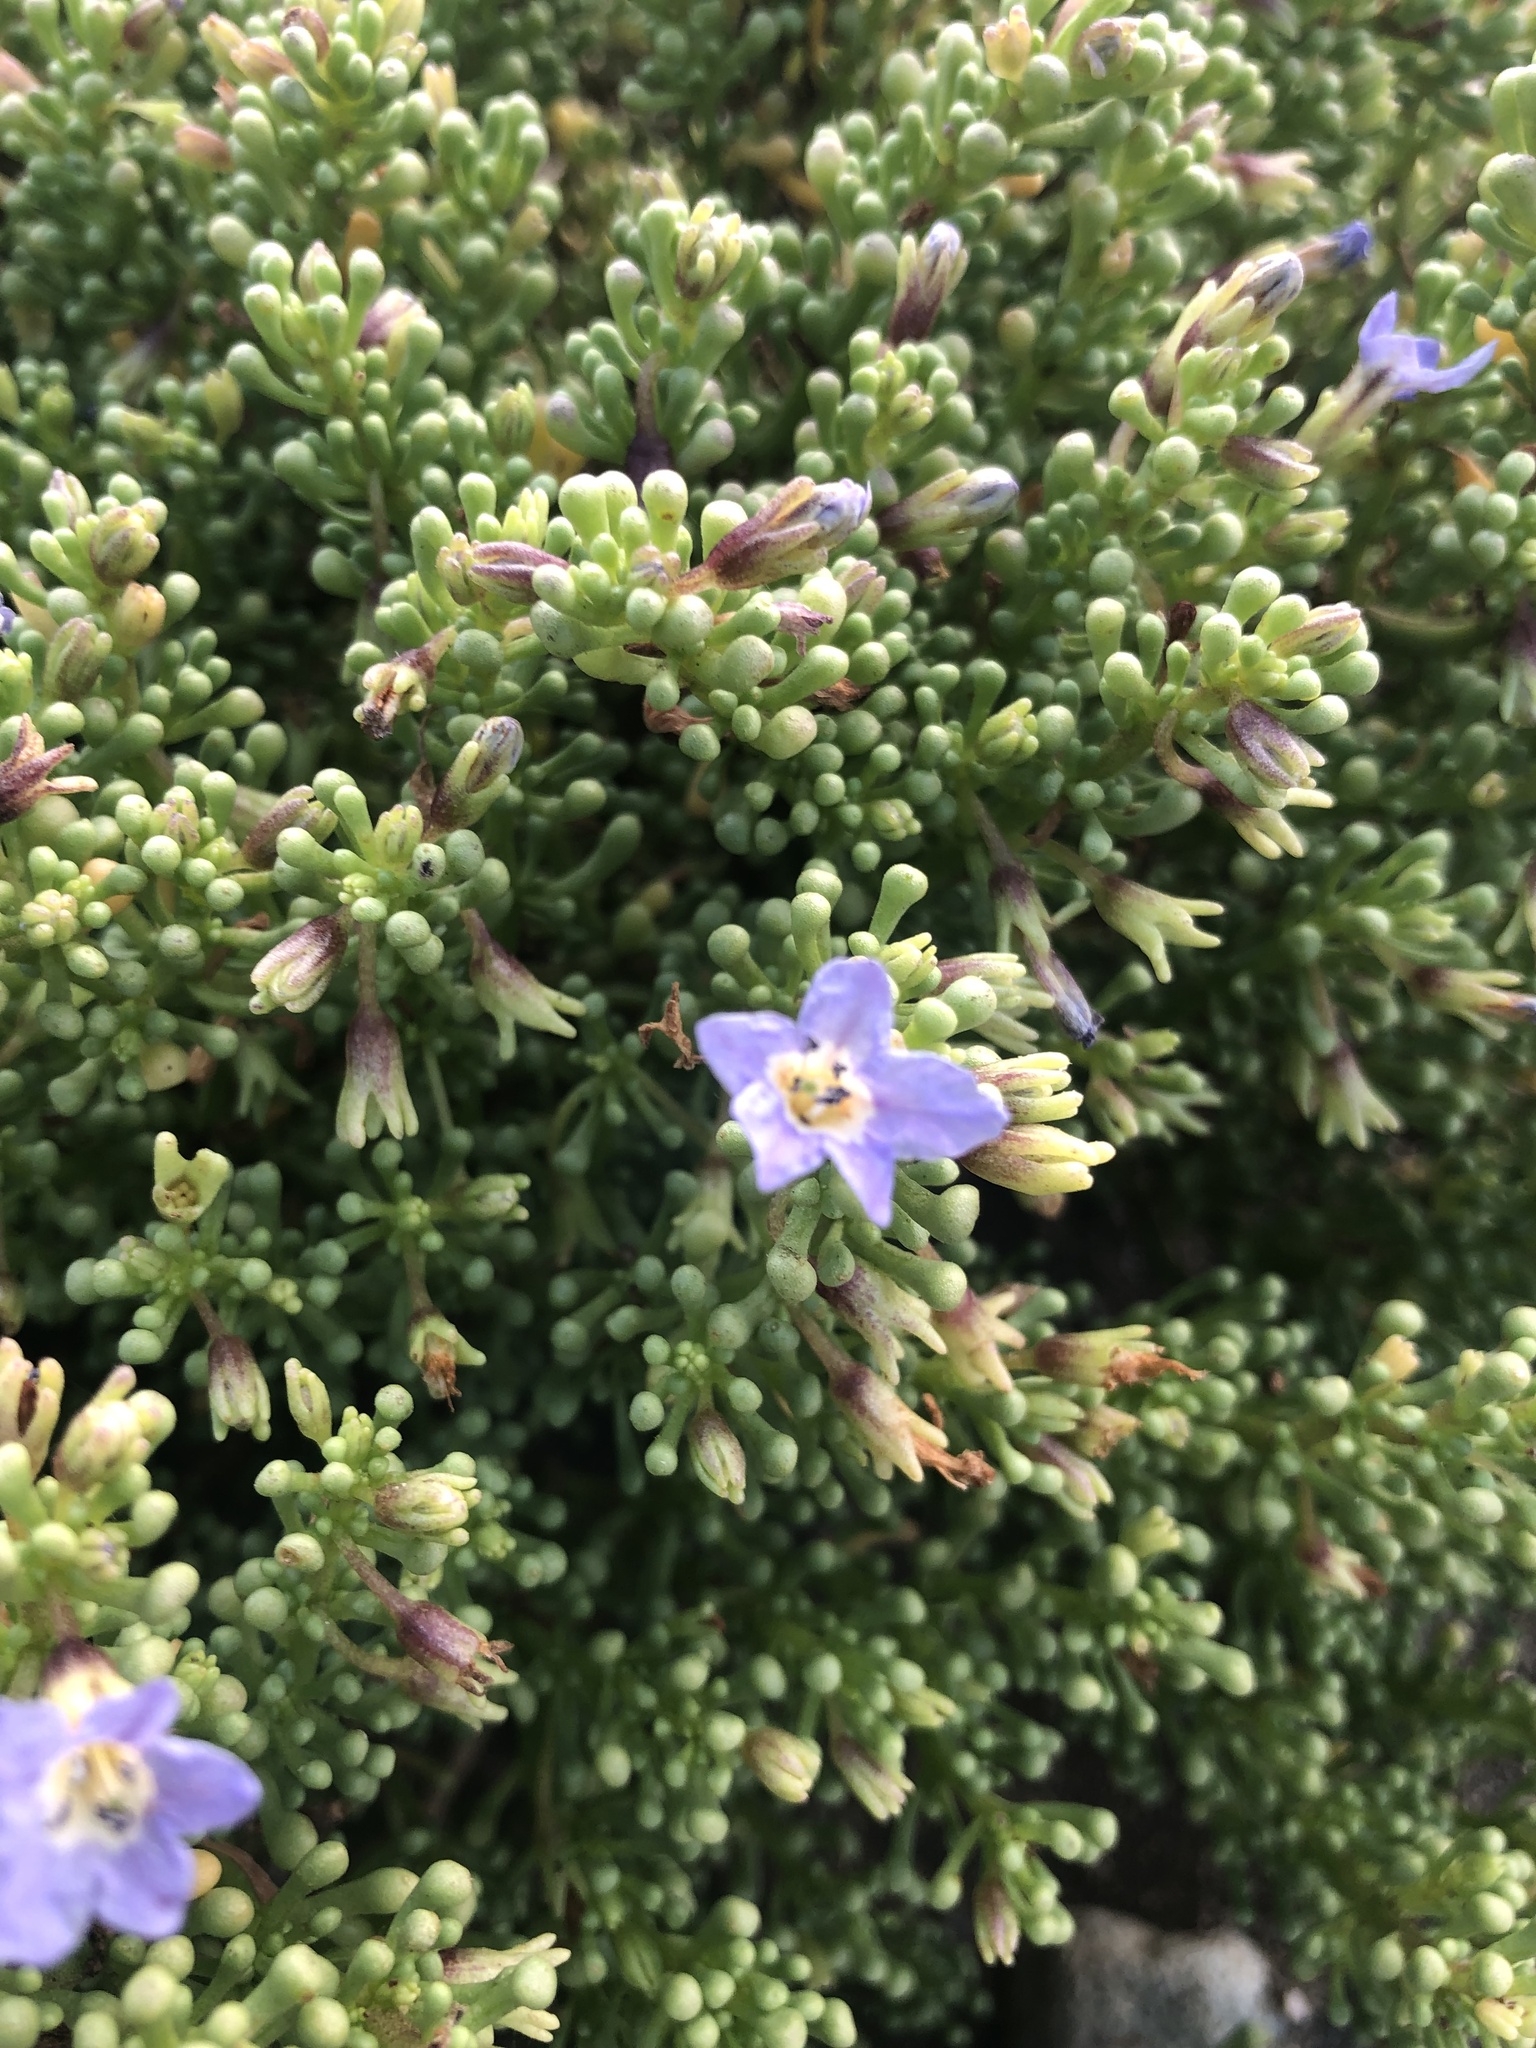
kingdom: Plantae
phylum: Tracheophyta
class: Magnoliopsida
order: Solanales
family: Solanaceae
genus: Nolana
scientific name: Nolana divaricata
